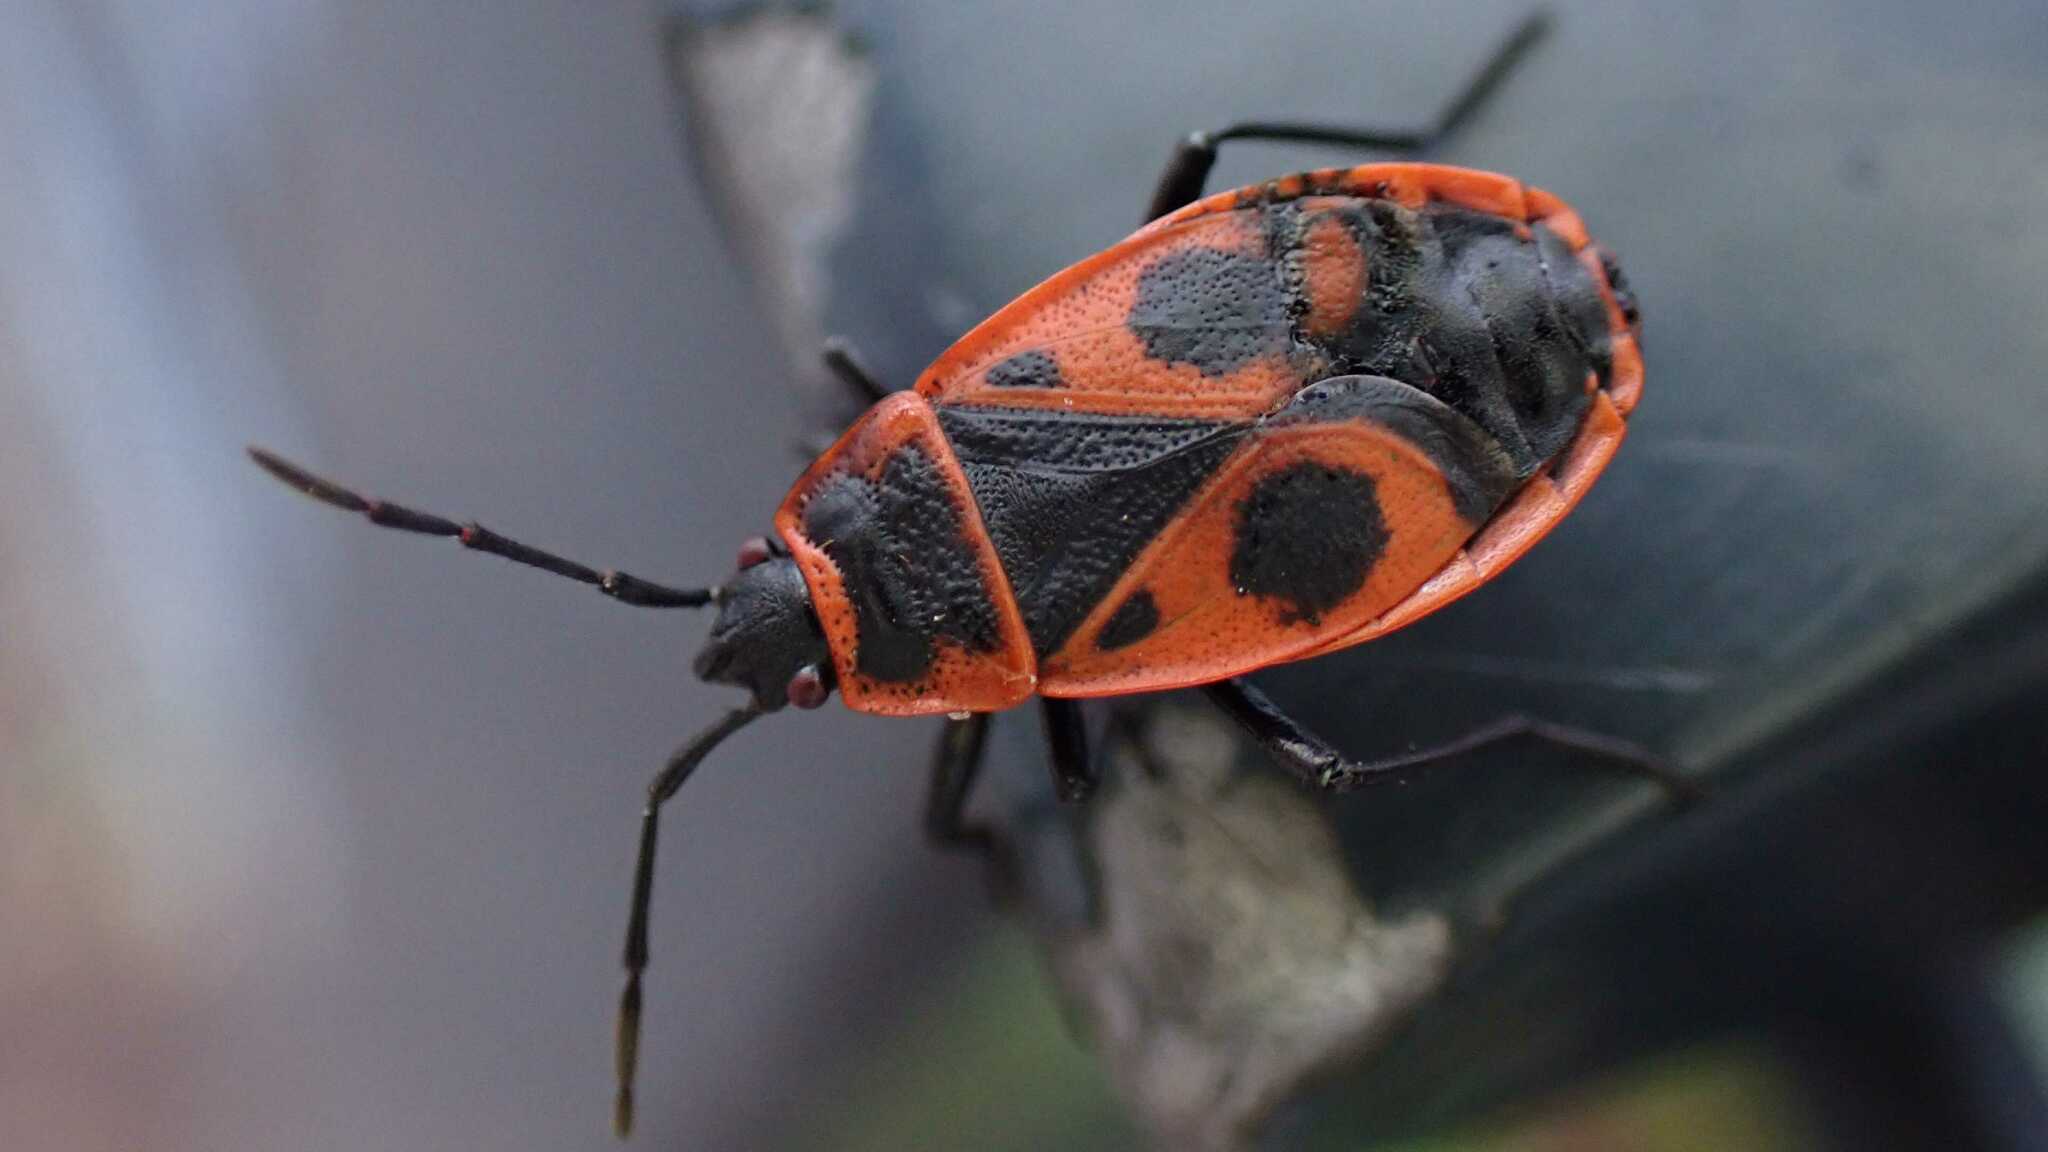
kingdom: Animalia
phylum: Arthropoda
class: Insecta
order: Hemiptera
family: Pyrrhocoridae
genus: Pyrrhocoris
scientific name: Pyrrhocoris apterus
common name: Firebug
